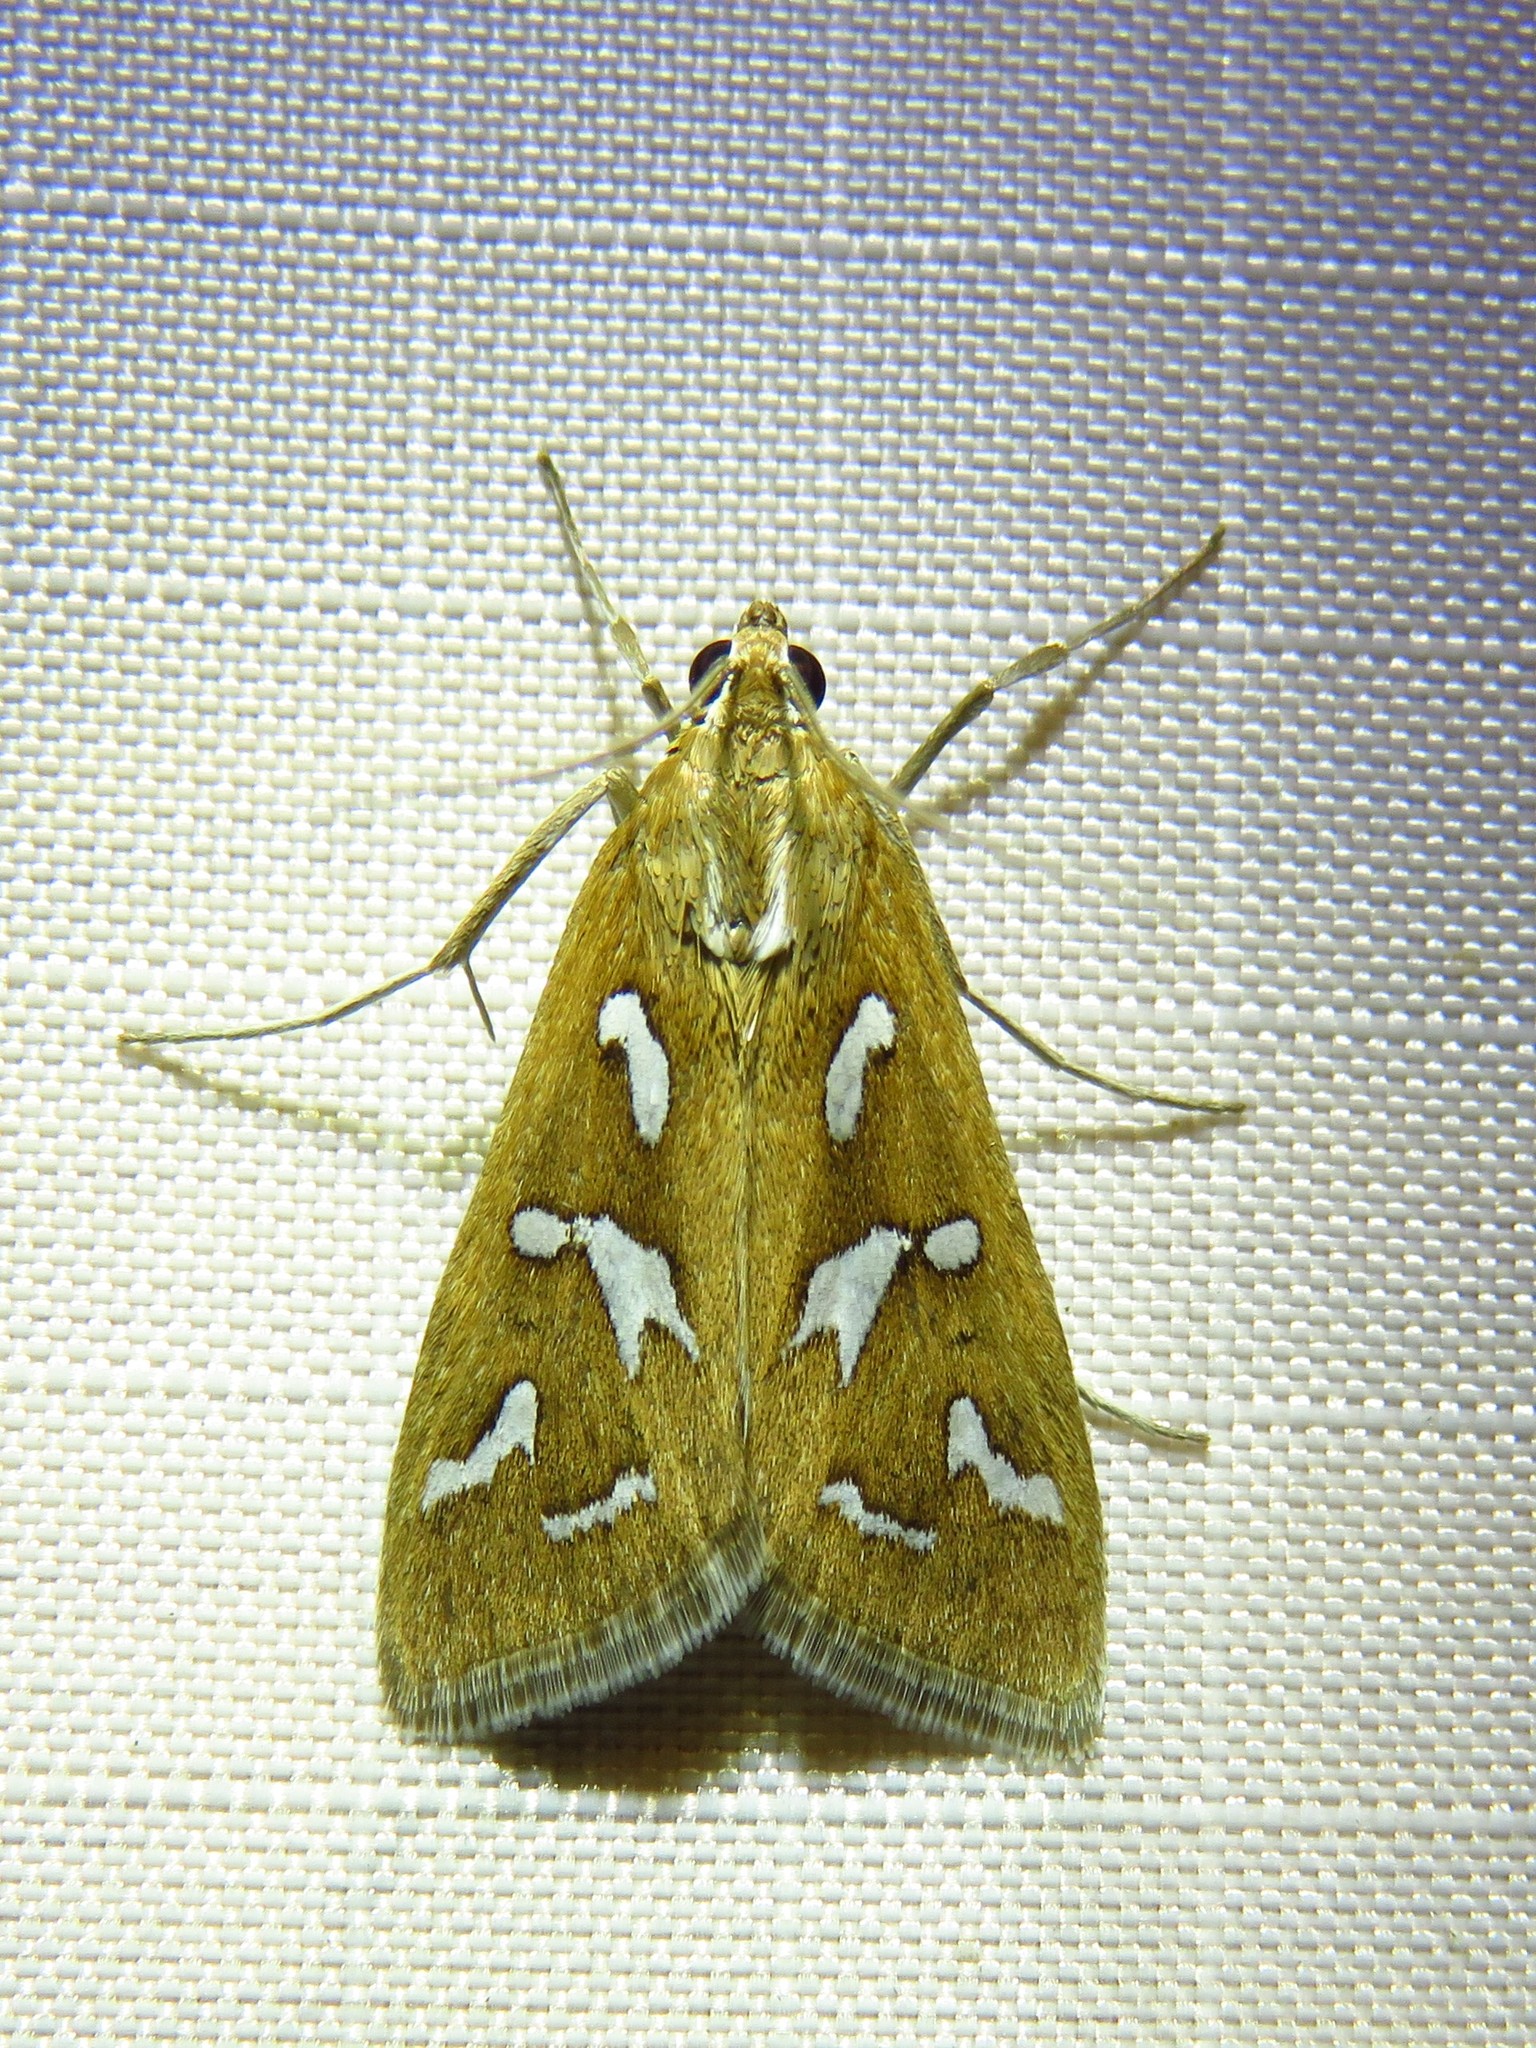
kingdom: Animalia
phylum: Arthropoda
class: Insecta
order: Lepidoptera
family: Crambidae
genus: Diastictis
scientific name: Diastictis fracturalis
